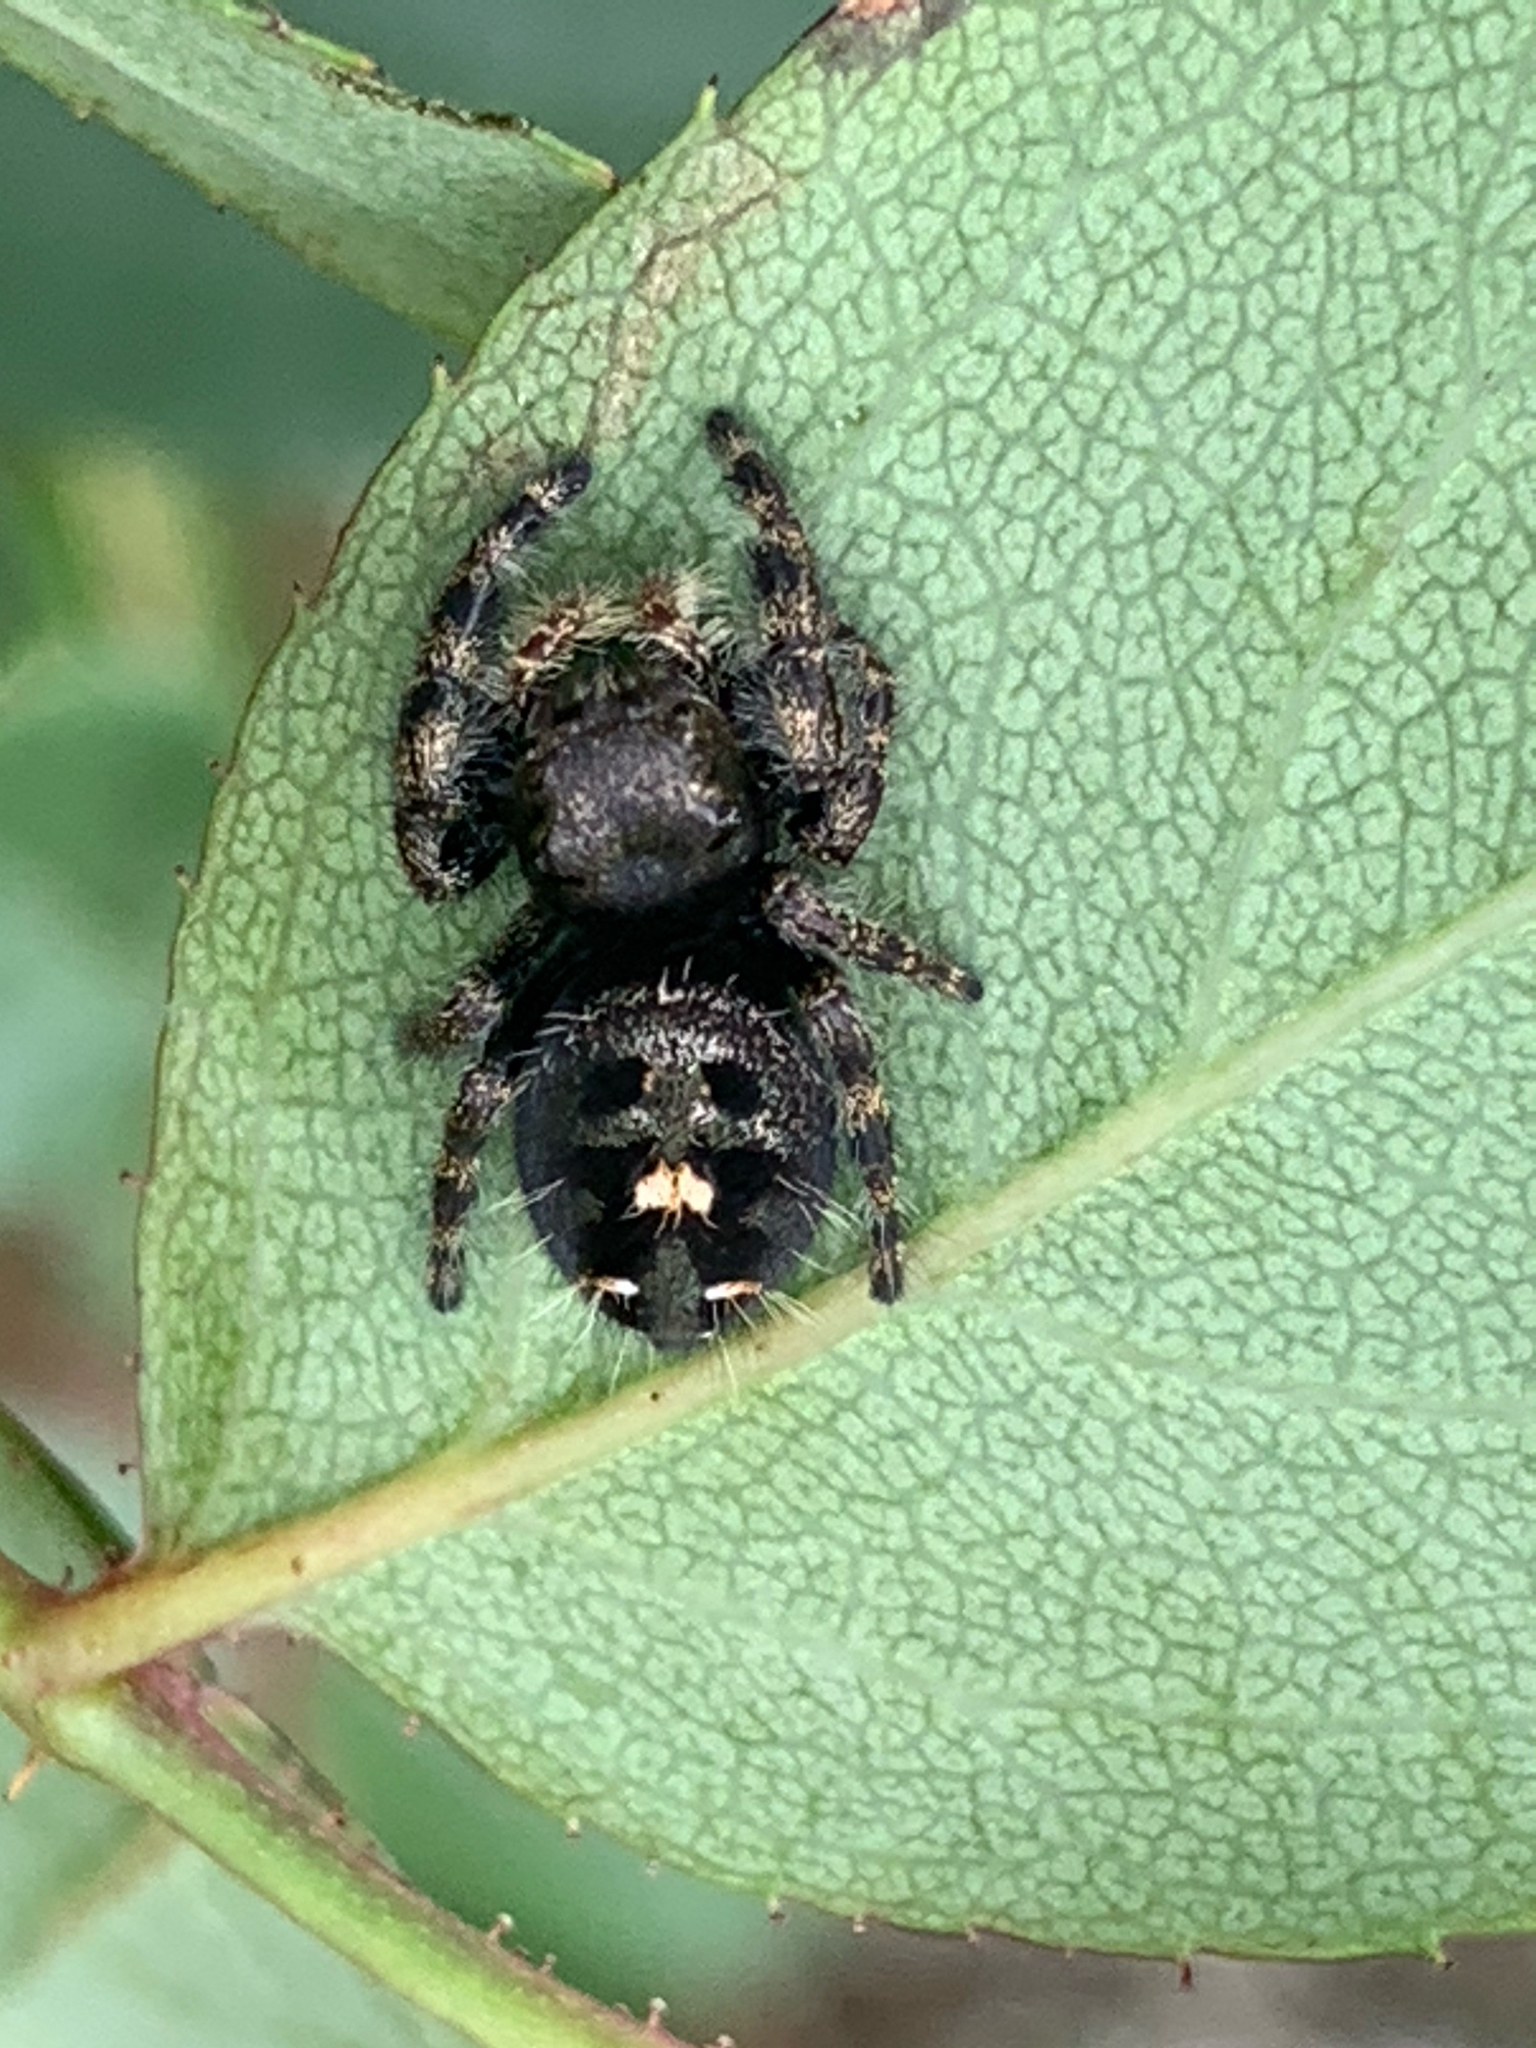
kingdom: Animalia
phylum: Arthropoda
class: Arachnida
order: Araneae
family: Salticidae
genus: Phidippus
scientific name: Phidippus audax
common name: Bold jumper
